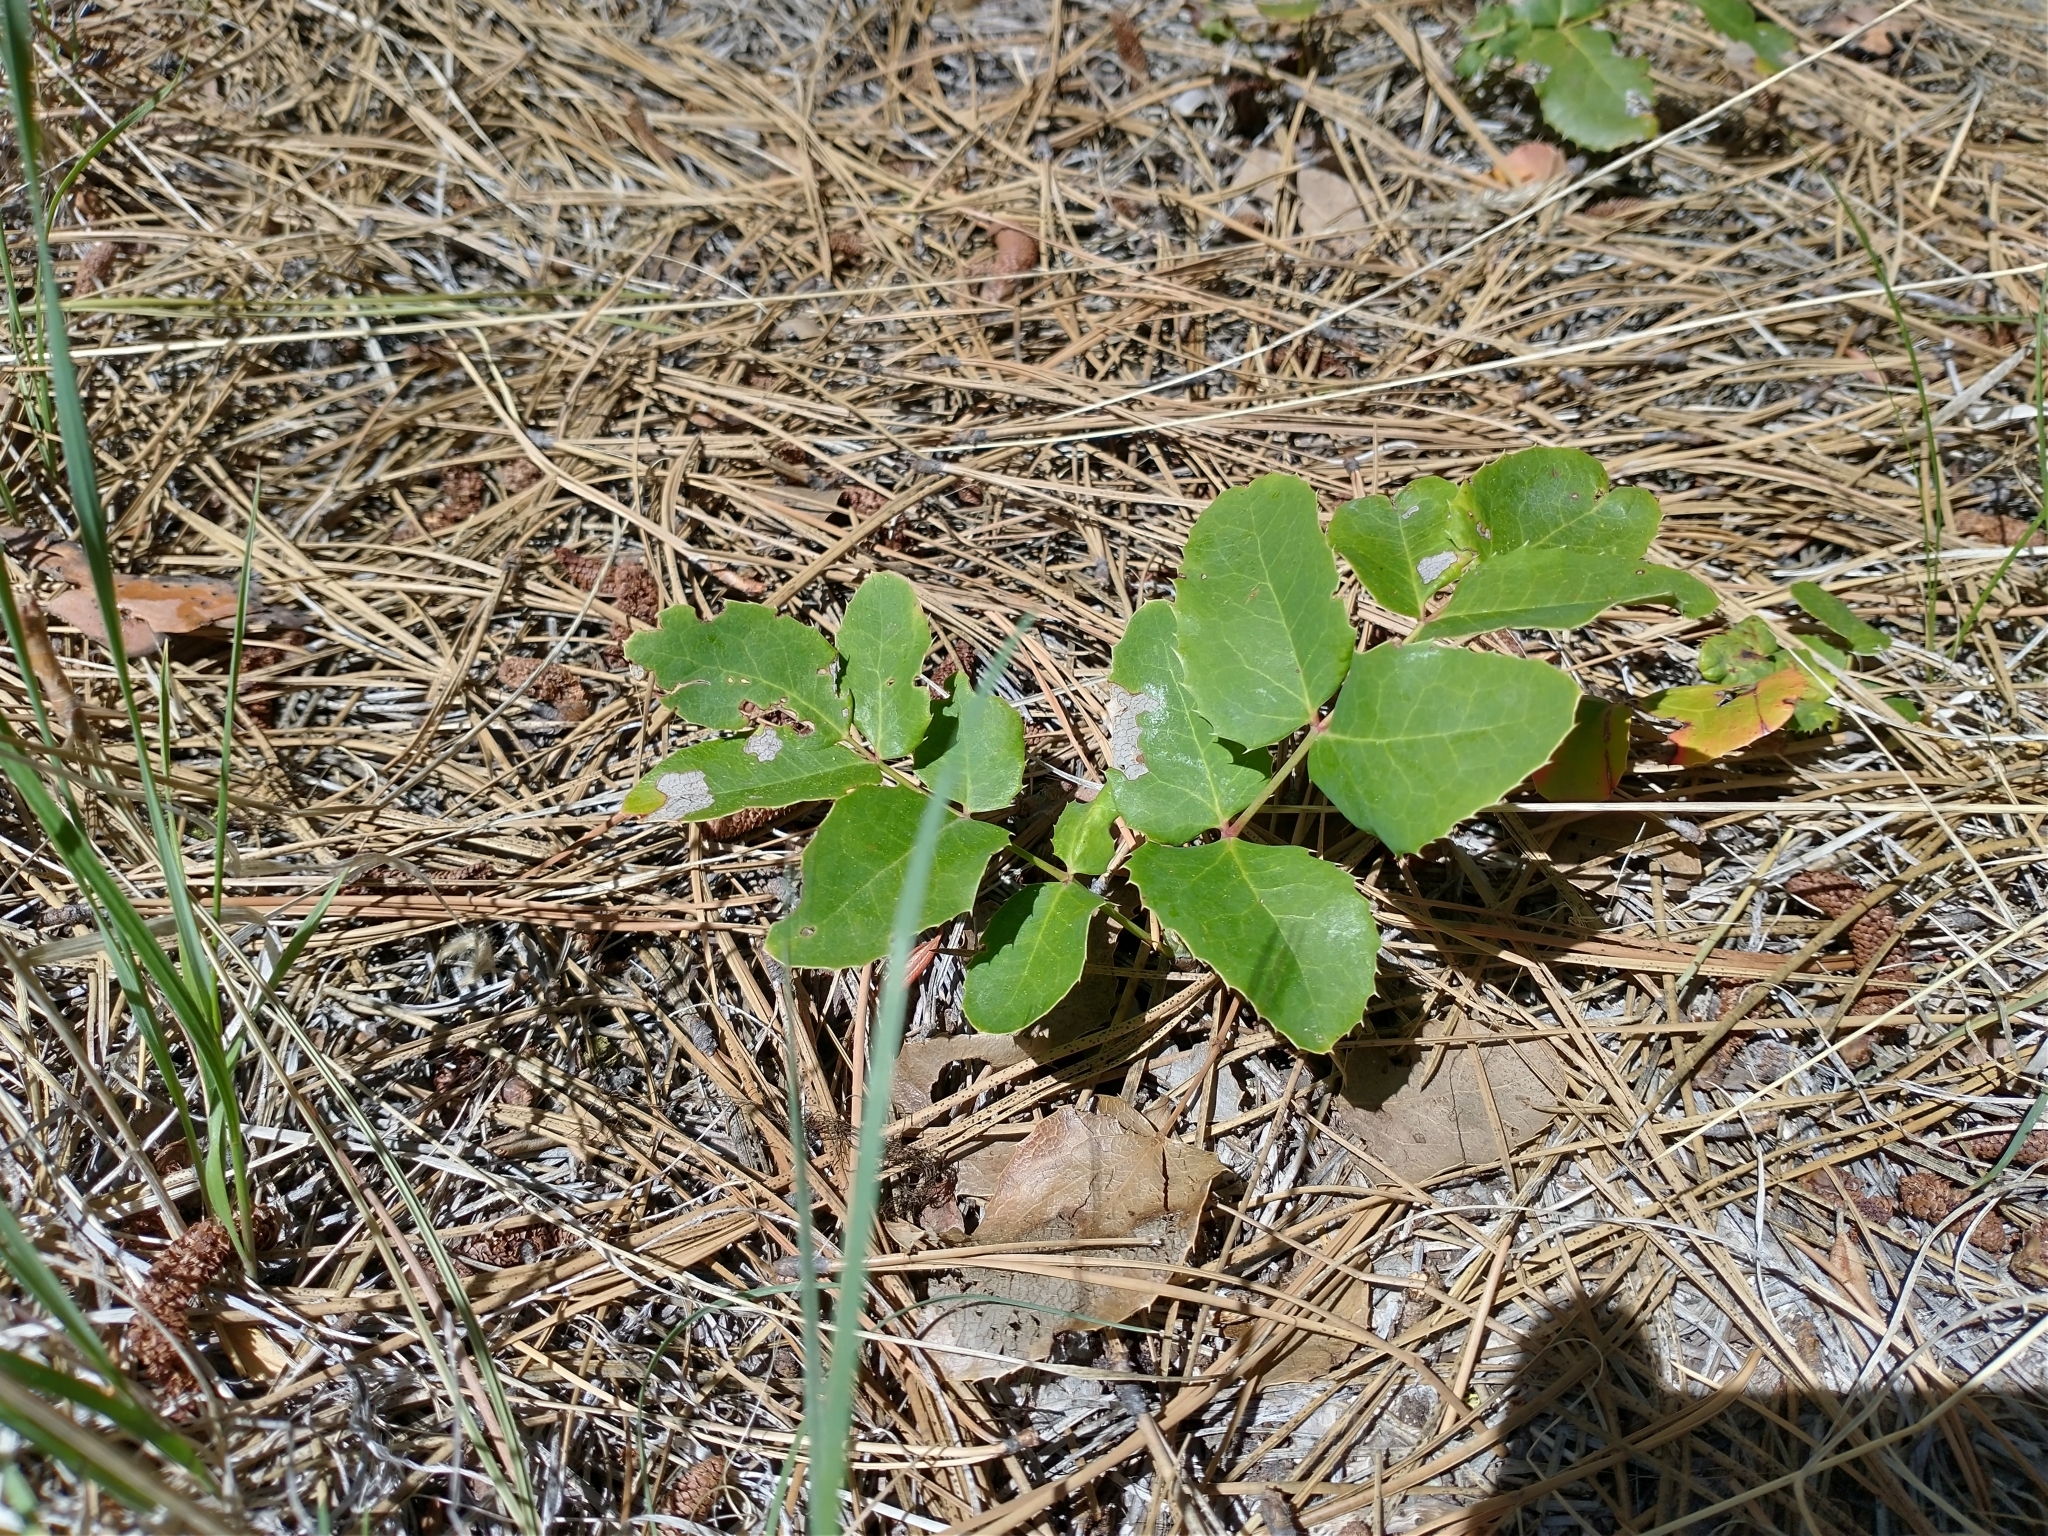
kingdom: Plantae
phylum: Tracheophyta
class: Magnoliopsida
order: Ranunculales
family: Berberidaceae
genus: Mahonia
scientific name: Mahonia repens
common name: Creeping oregon-grape
